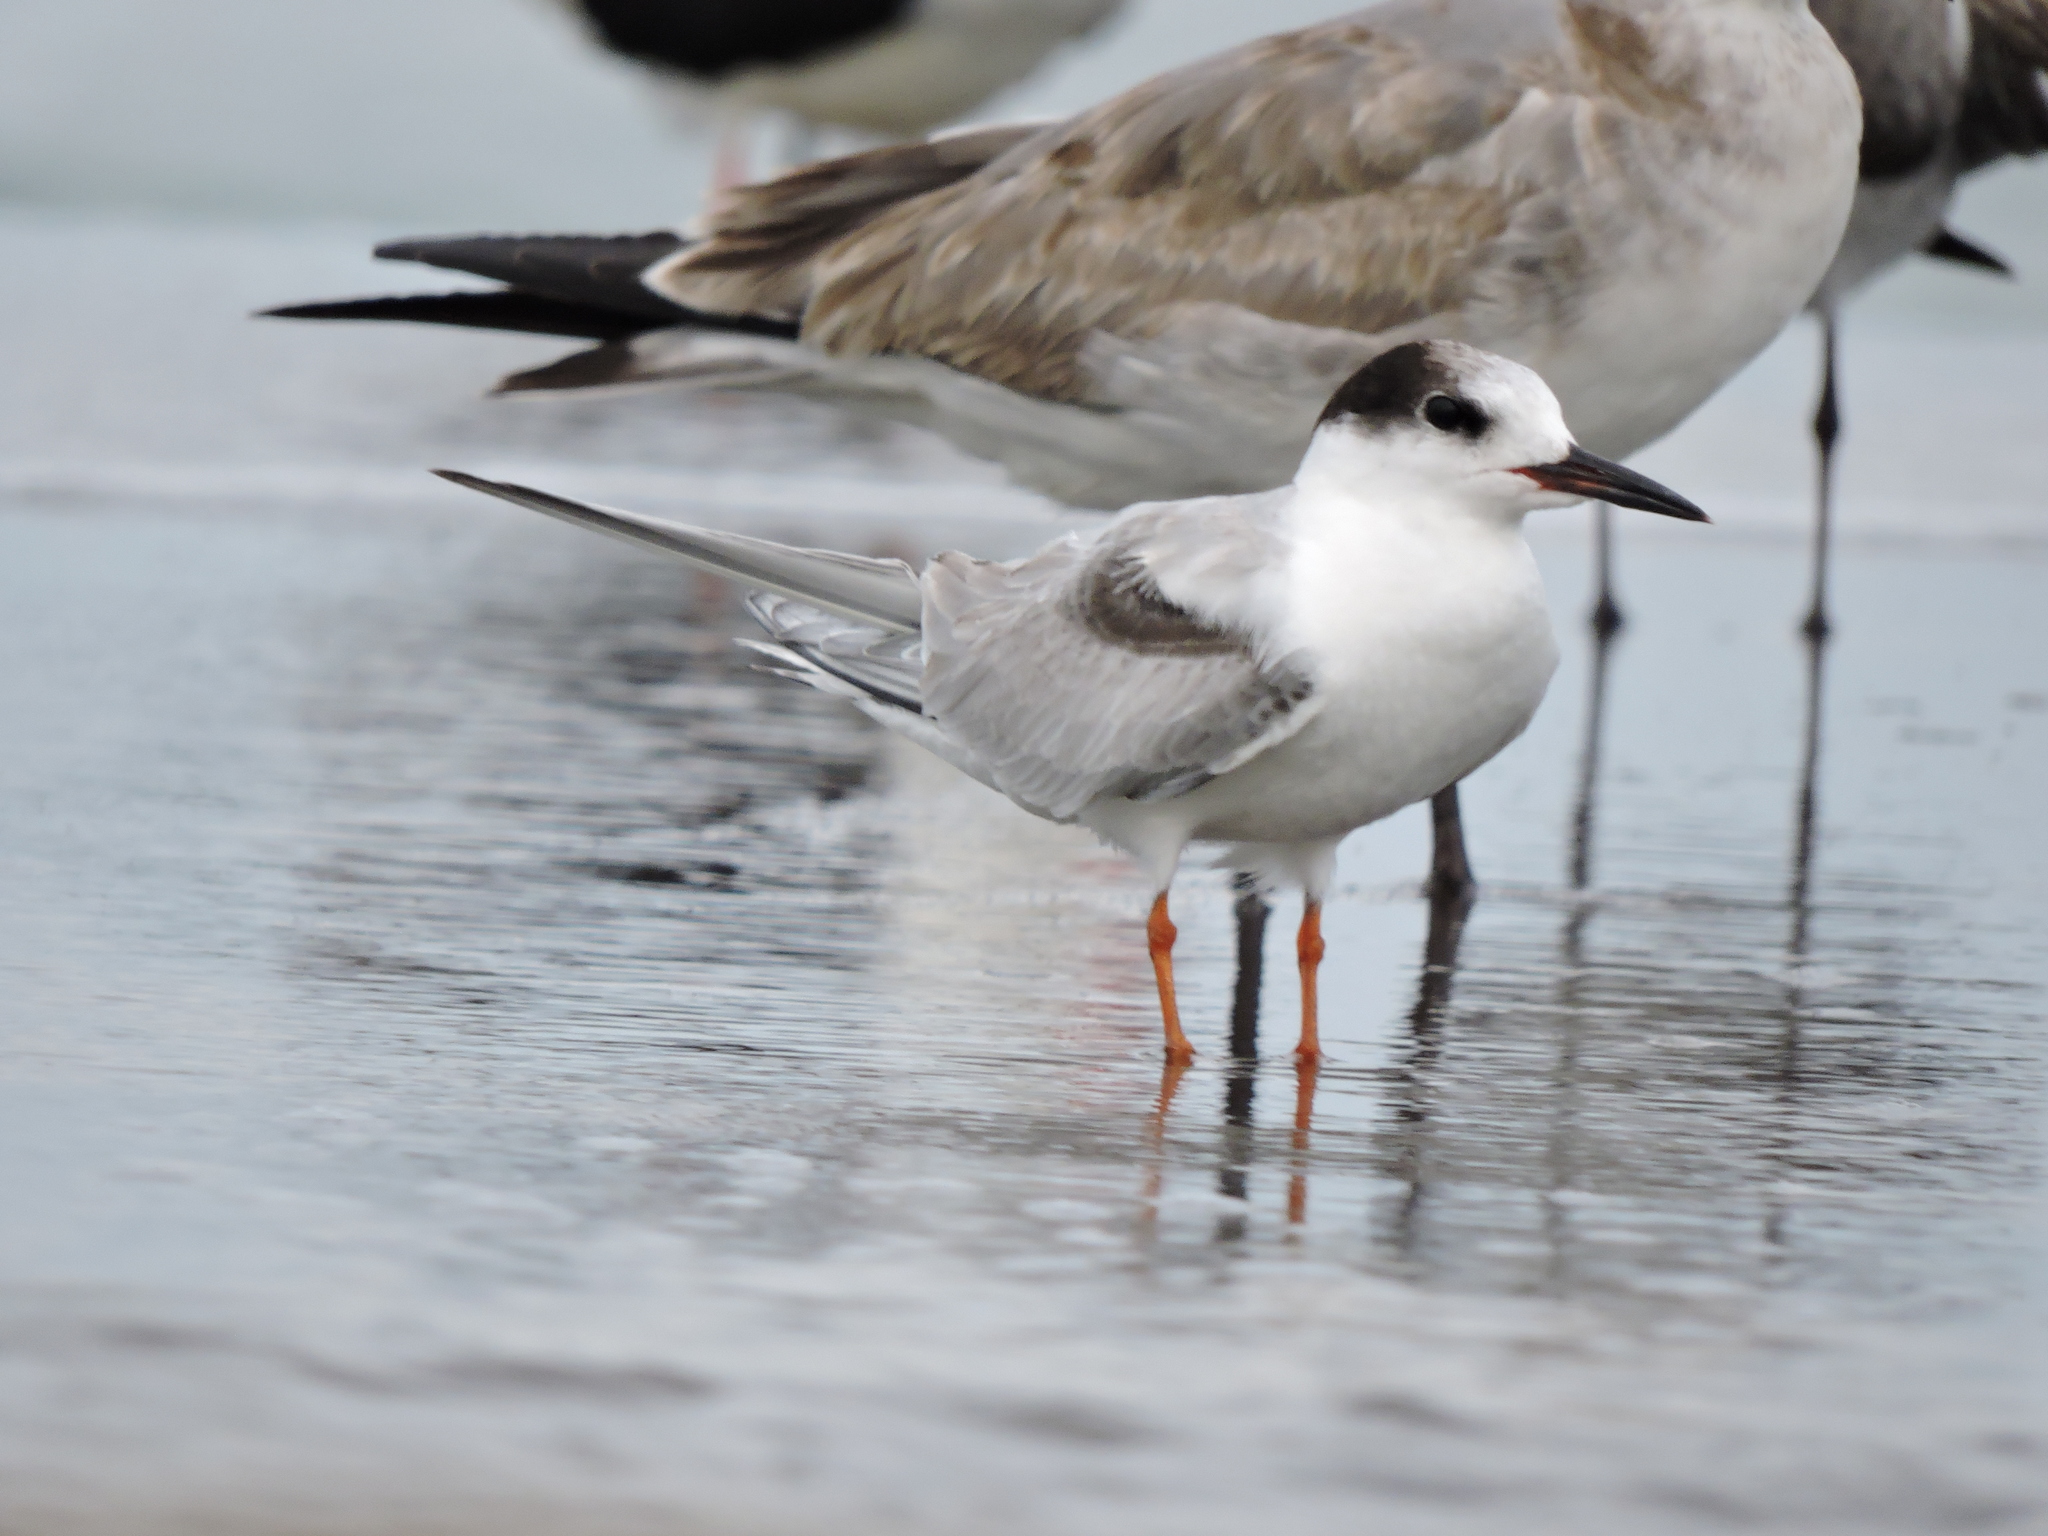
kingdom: Animalia
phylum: Chordata
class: Aves
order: Charadriiformes
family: Laridae
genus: Sterna
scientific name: Sterna hirundo
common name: Common tern
